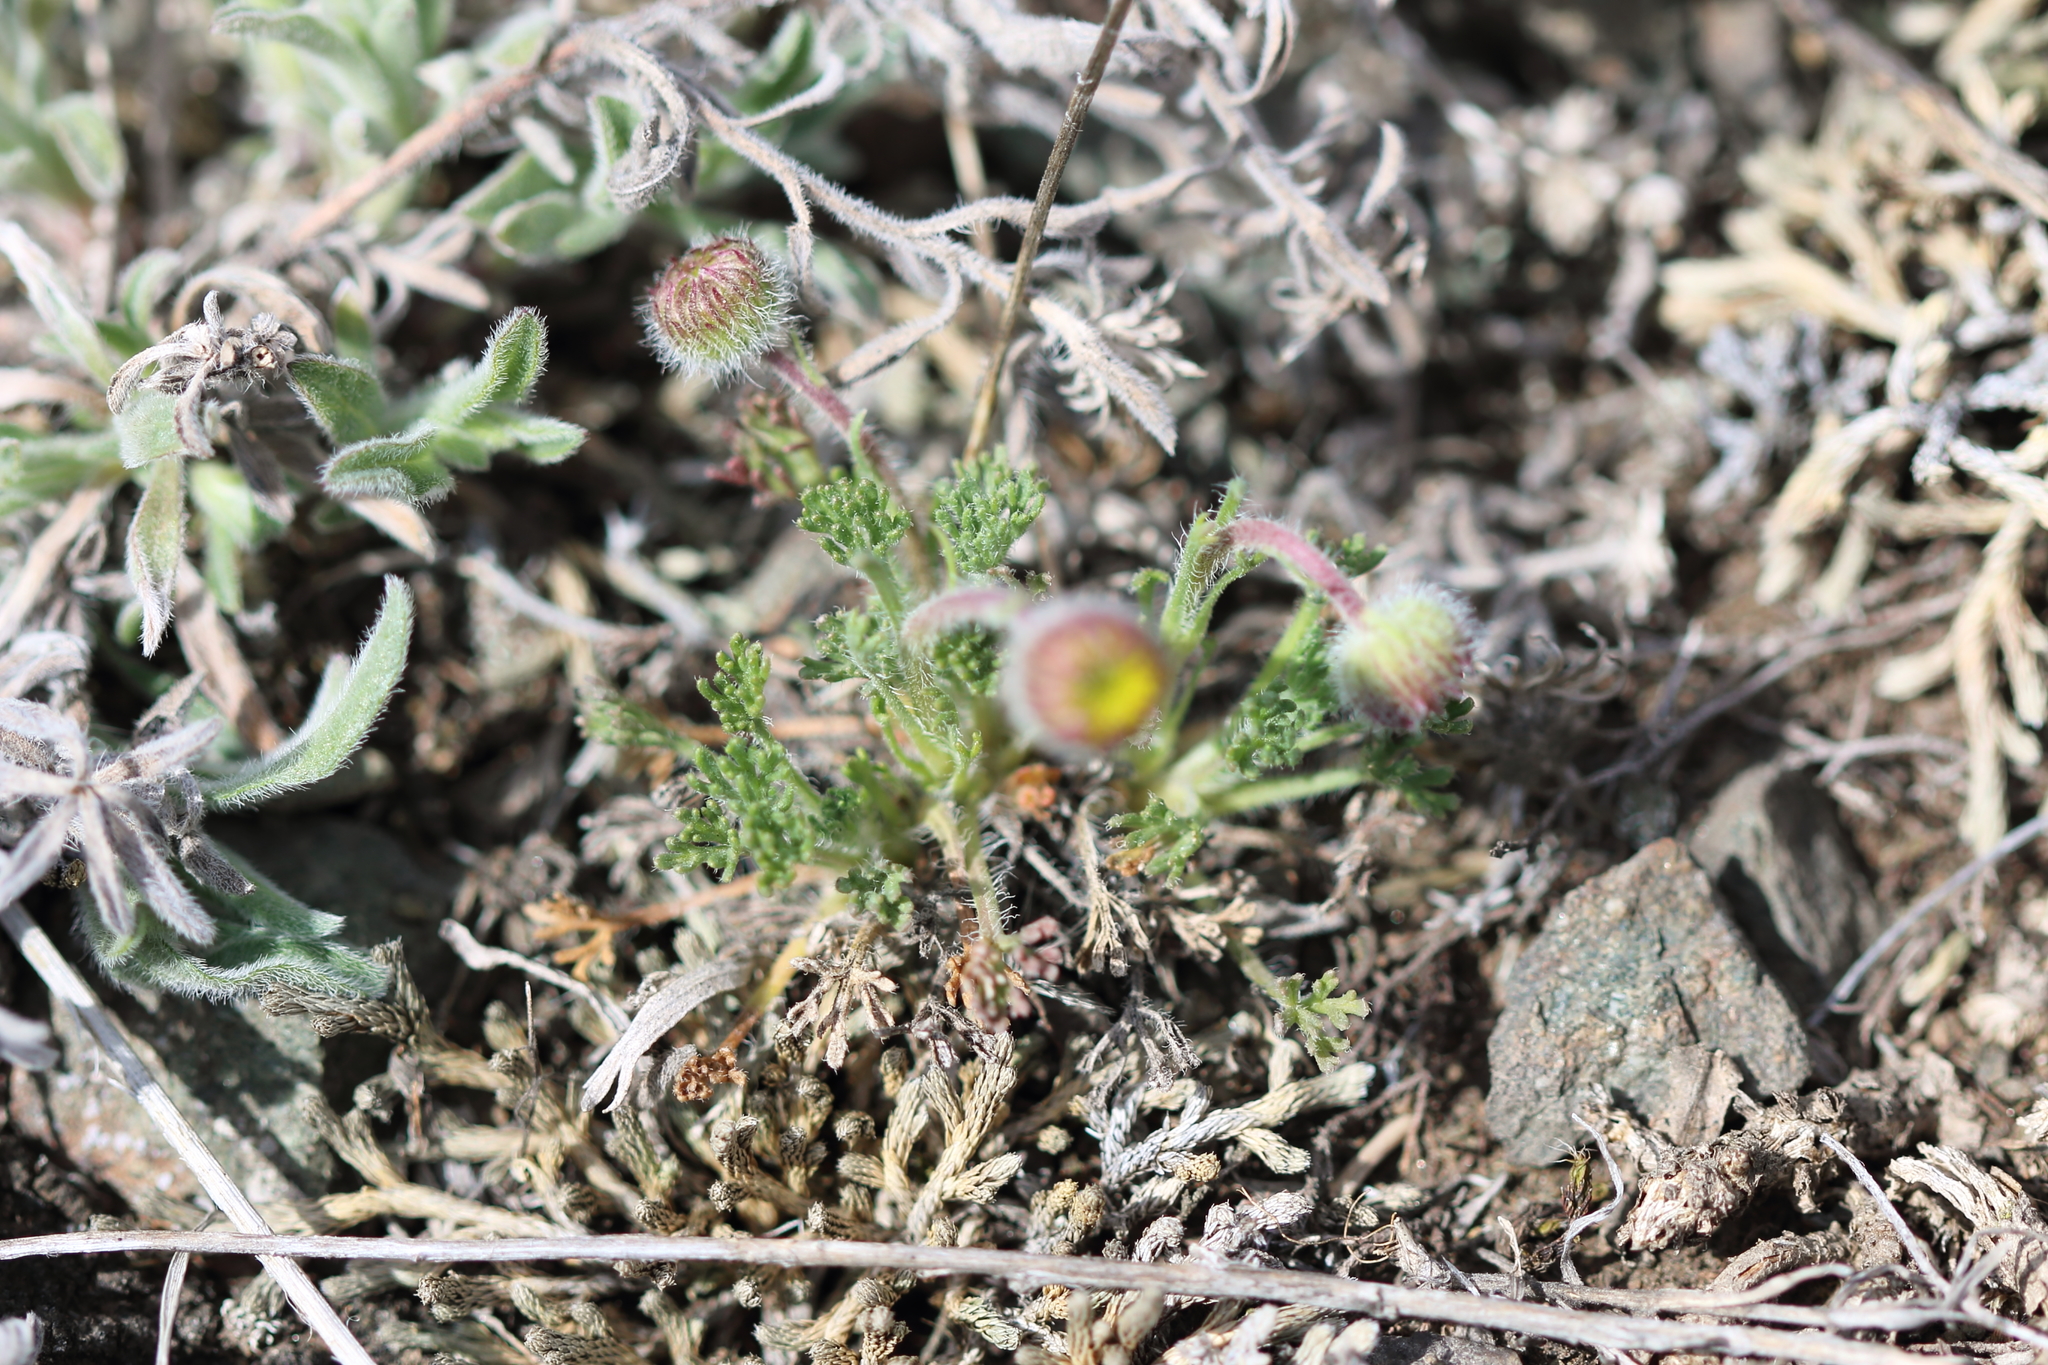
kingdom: Plantae
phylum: Tracheophyta
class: Magnoliopsida
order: Asterales
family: Asteraceae
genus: Erigeron
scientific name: Erigeron compositus
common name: Dwarf mountain fleabane
